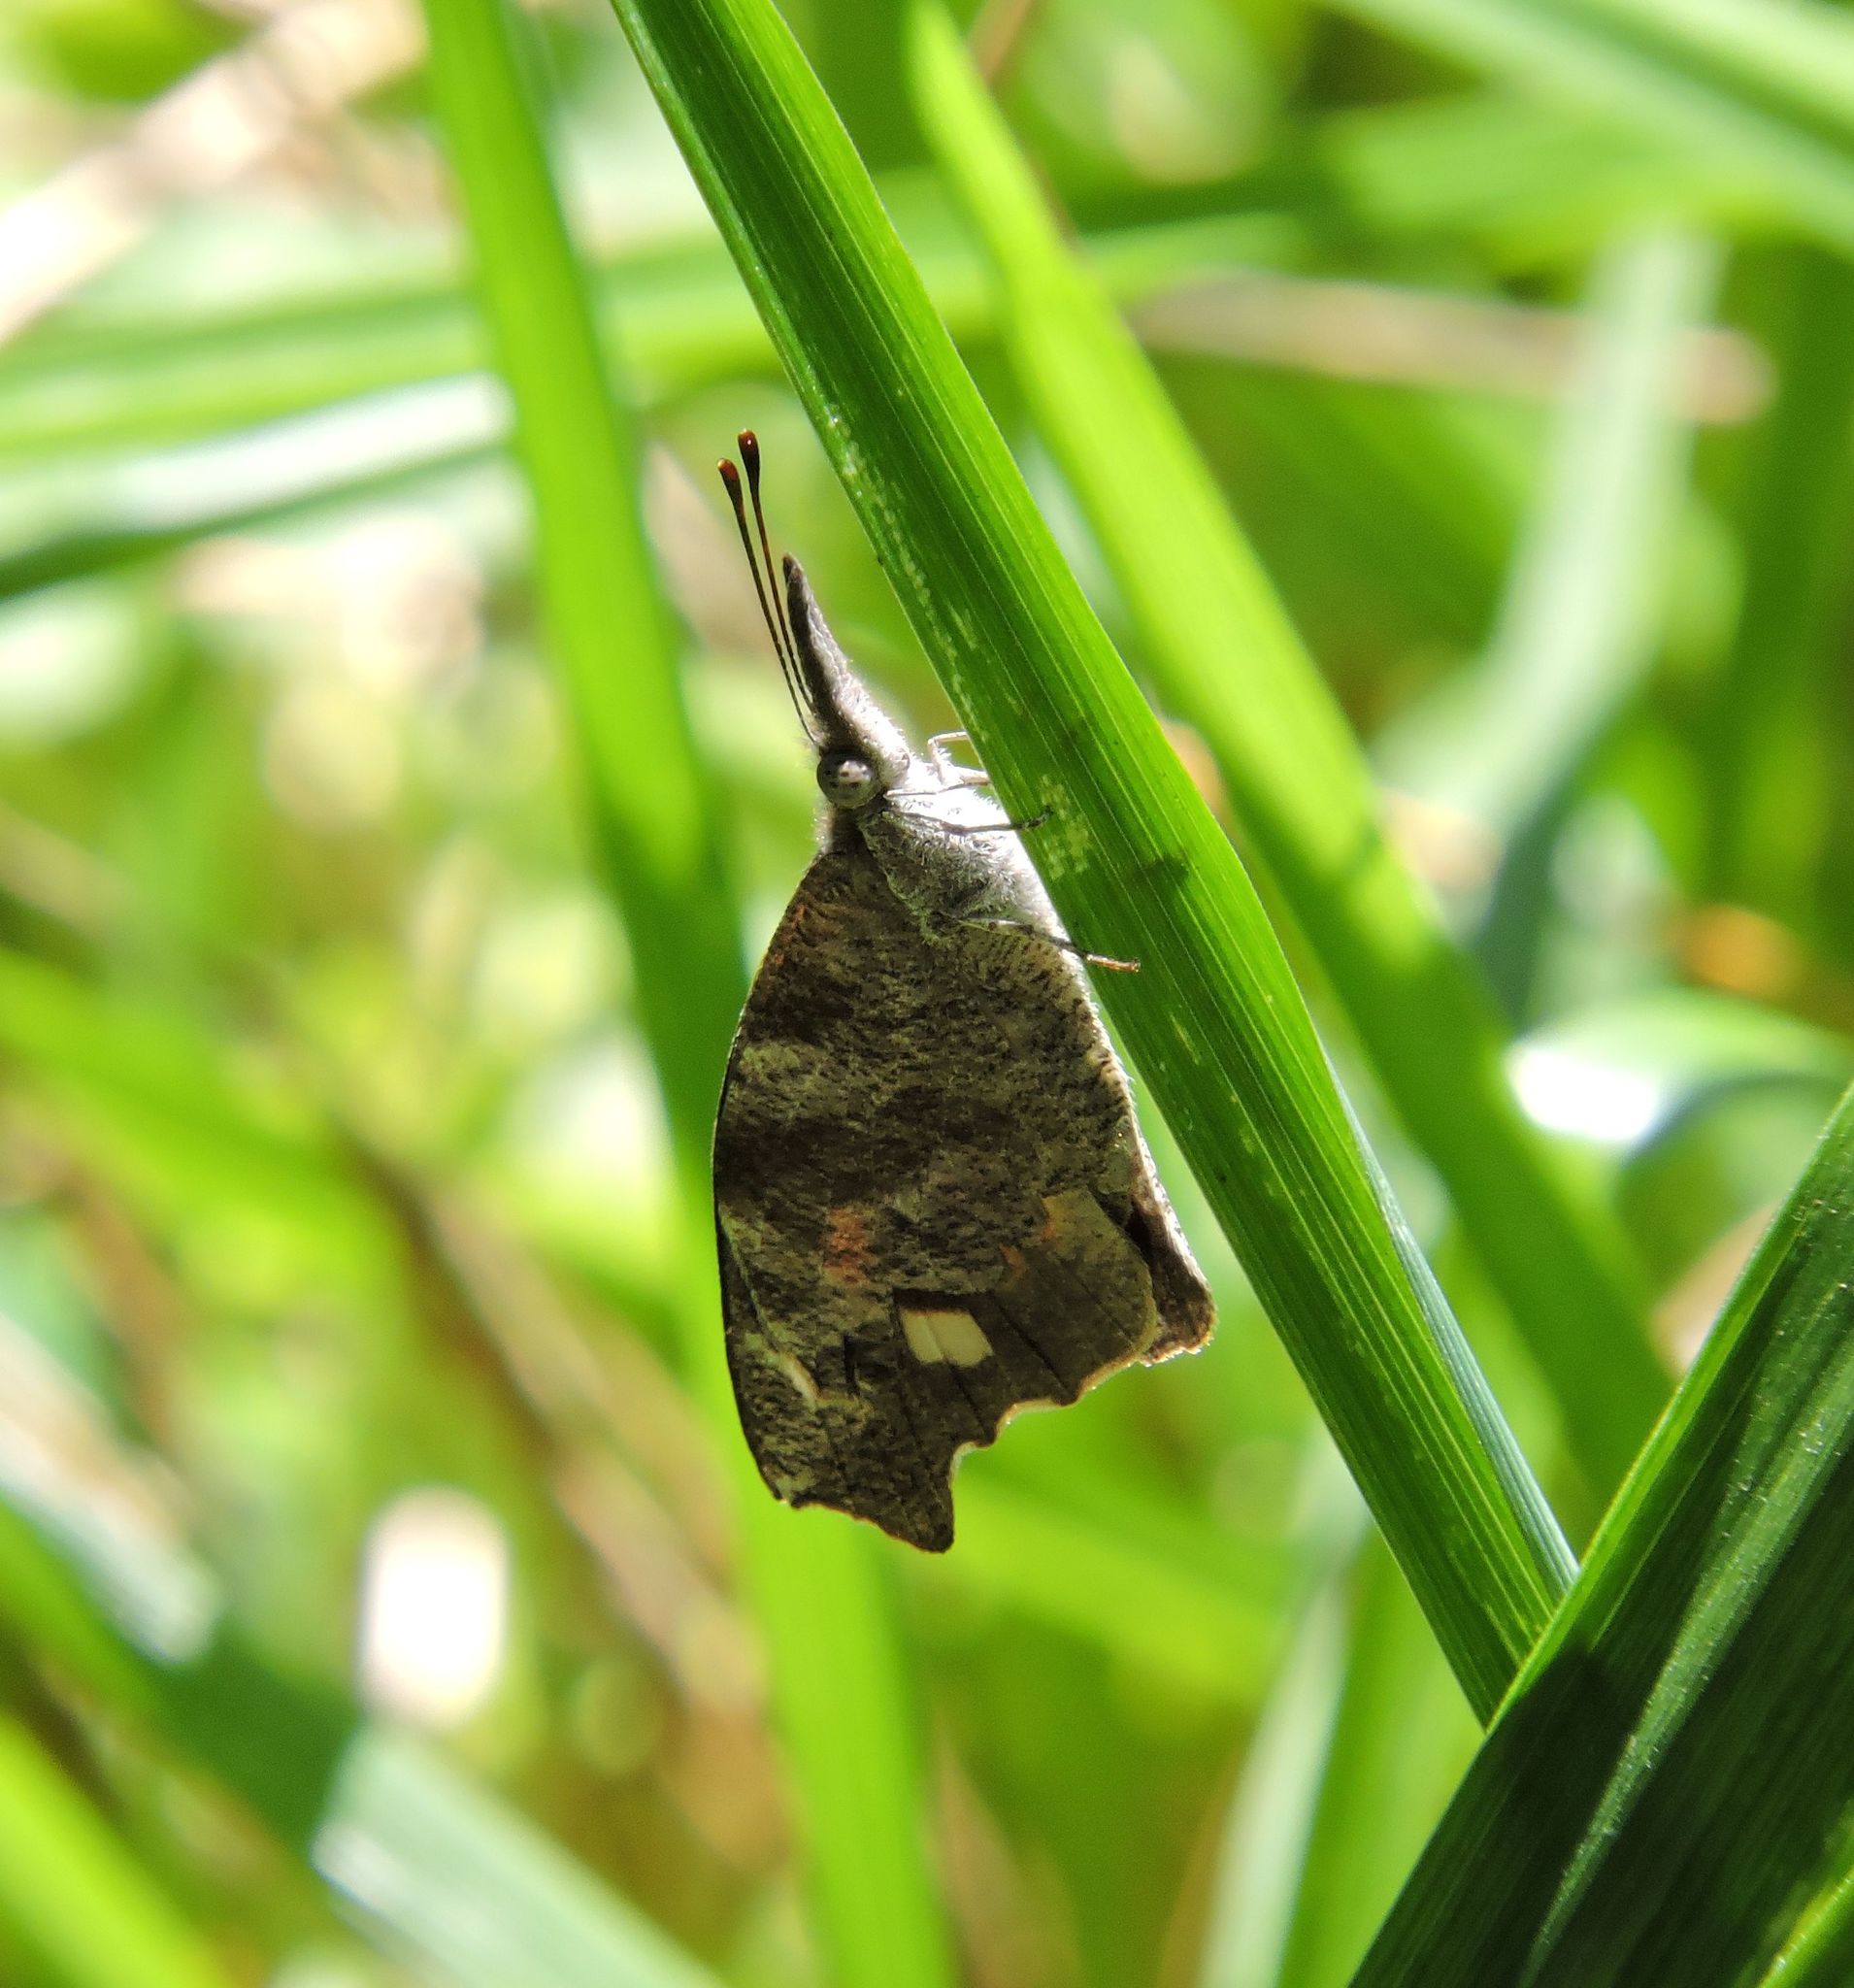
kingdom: Animalia
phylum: Arthropoda
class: Insecta
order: Lepidoptera
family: Nymphalidae
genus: Libytheana
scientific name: Libytheana carinenta
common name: American snout
